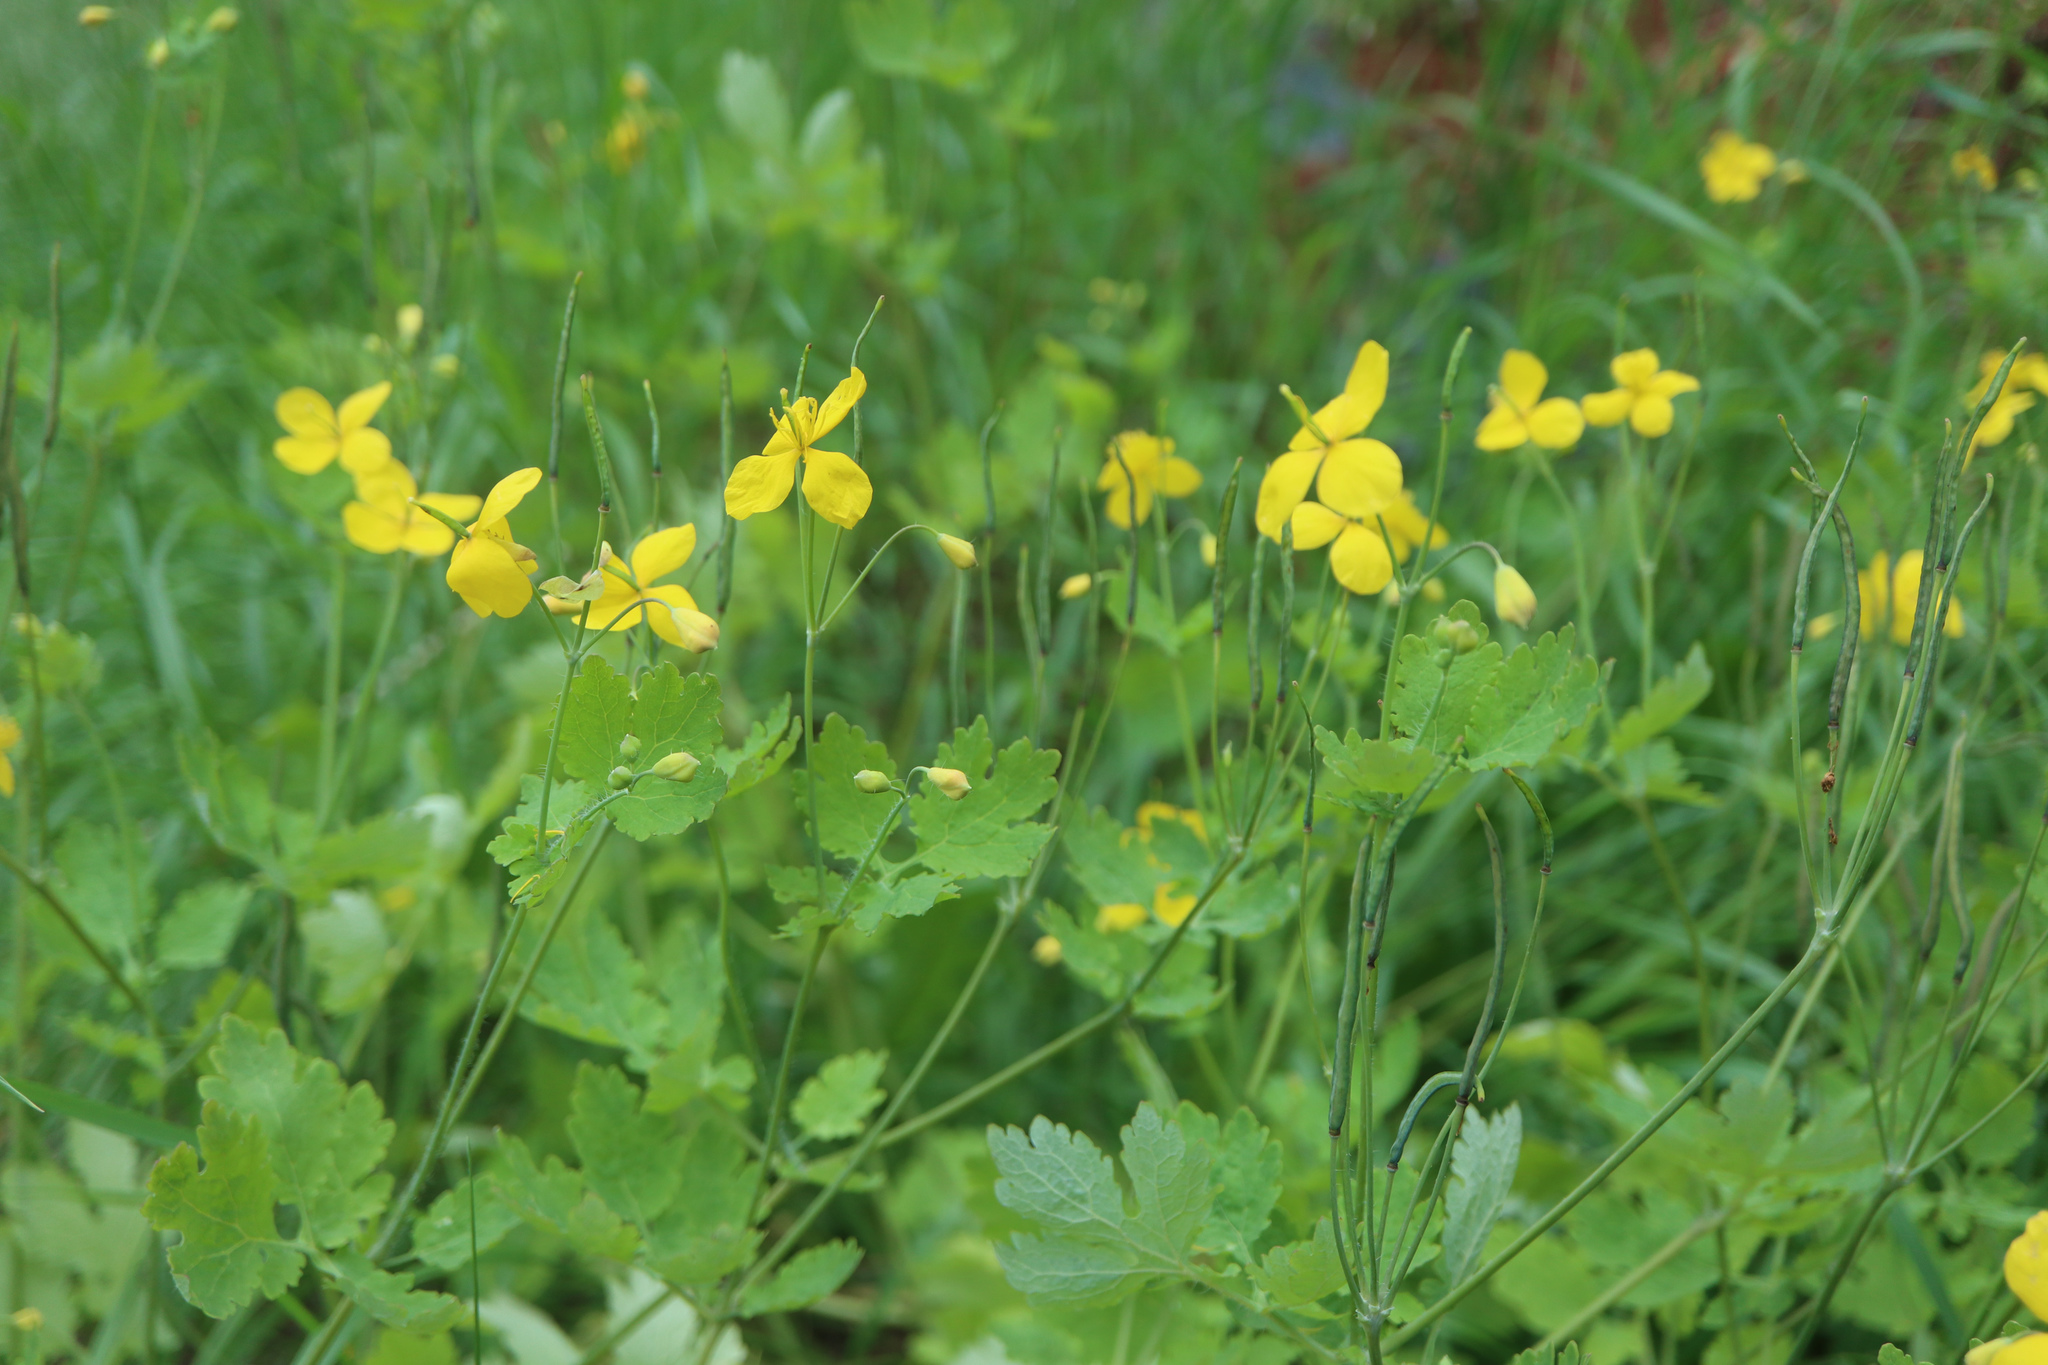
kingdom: Plantae
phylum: Tracheophyta
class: Magnoliopsida
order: Ranunculales
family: Papaveraceae
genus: Chelidonium
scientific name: Chelidonium majus
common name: Greater celandine
